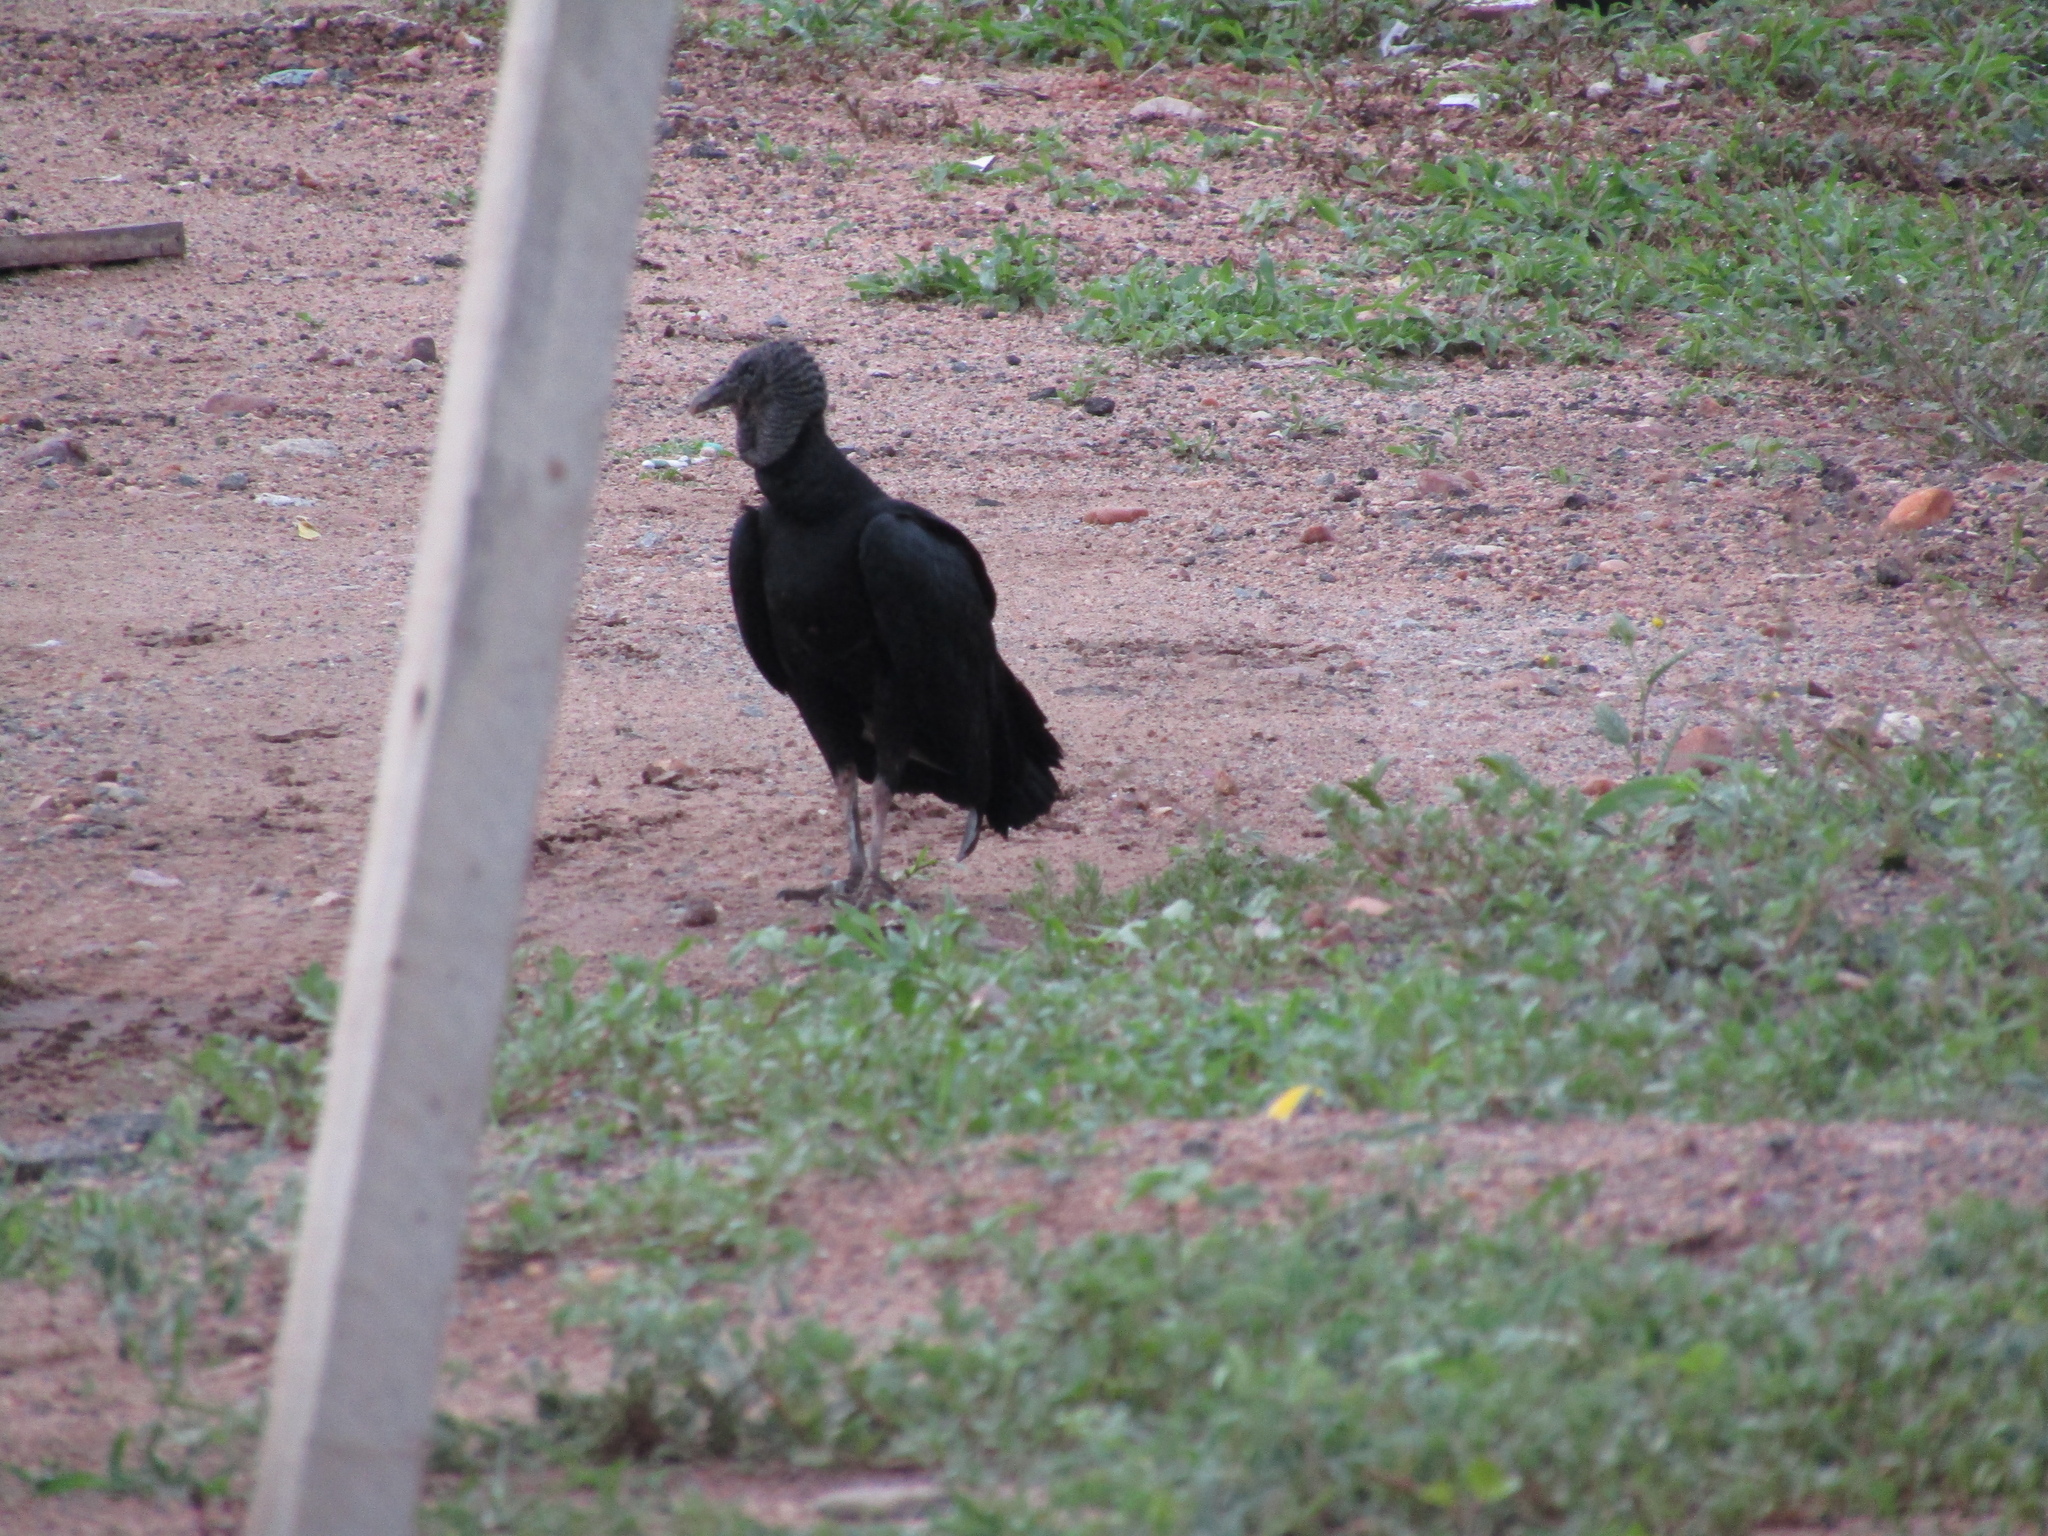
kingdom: Animalia
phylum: Chordata
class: Aves
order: Accipitriformes
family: Cathartidae
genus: Coragyps
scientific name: Coragyps atratus
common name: Black vulture
